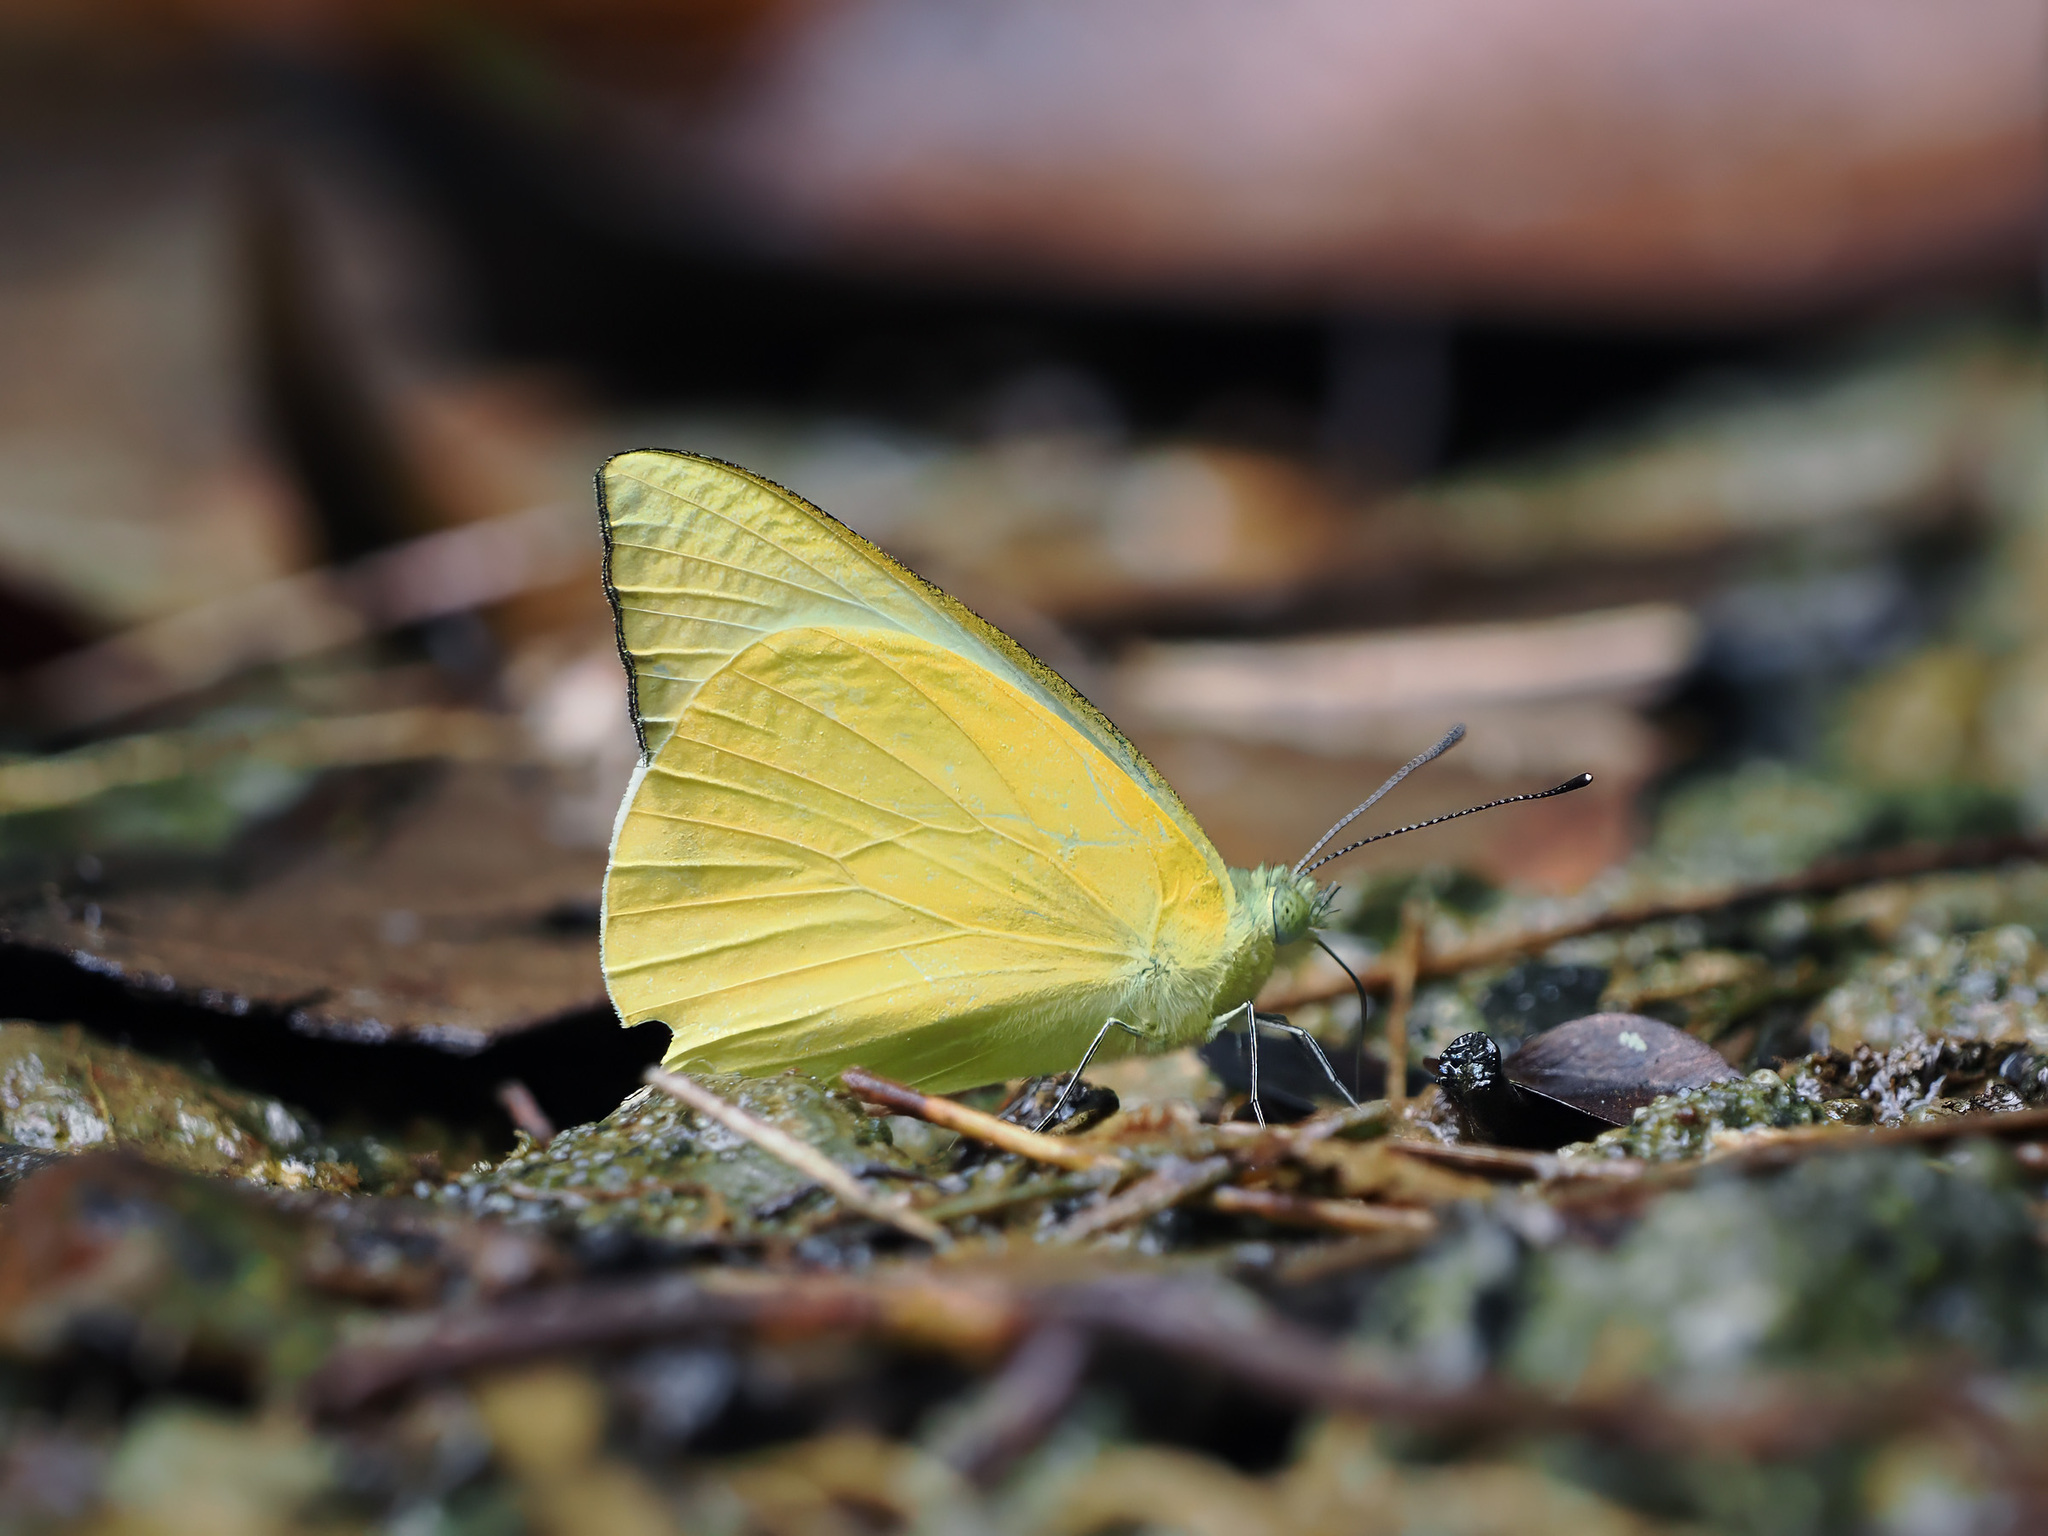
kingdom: Animalia
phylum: Arthropoda
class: Insecta
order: Lepidoptera
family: Pieridae
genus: Saletara
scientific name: Saletara panda
